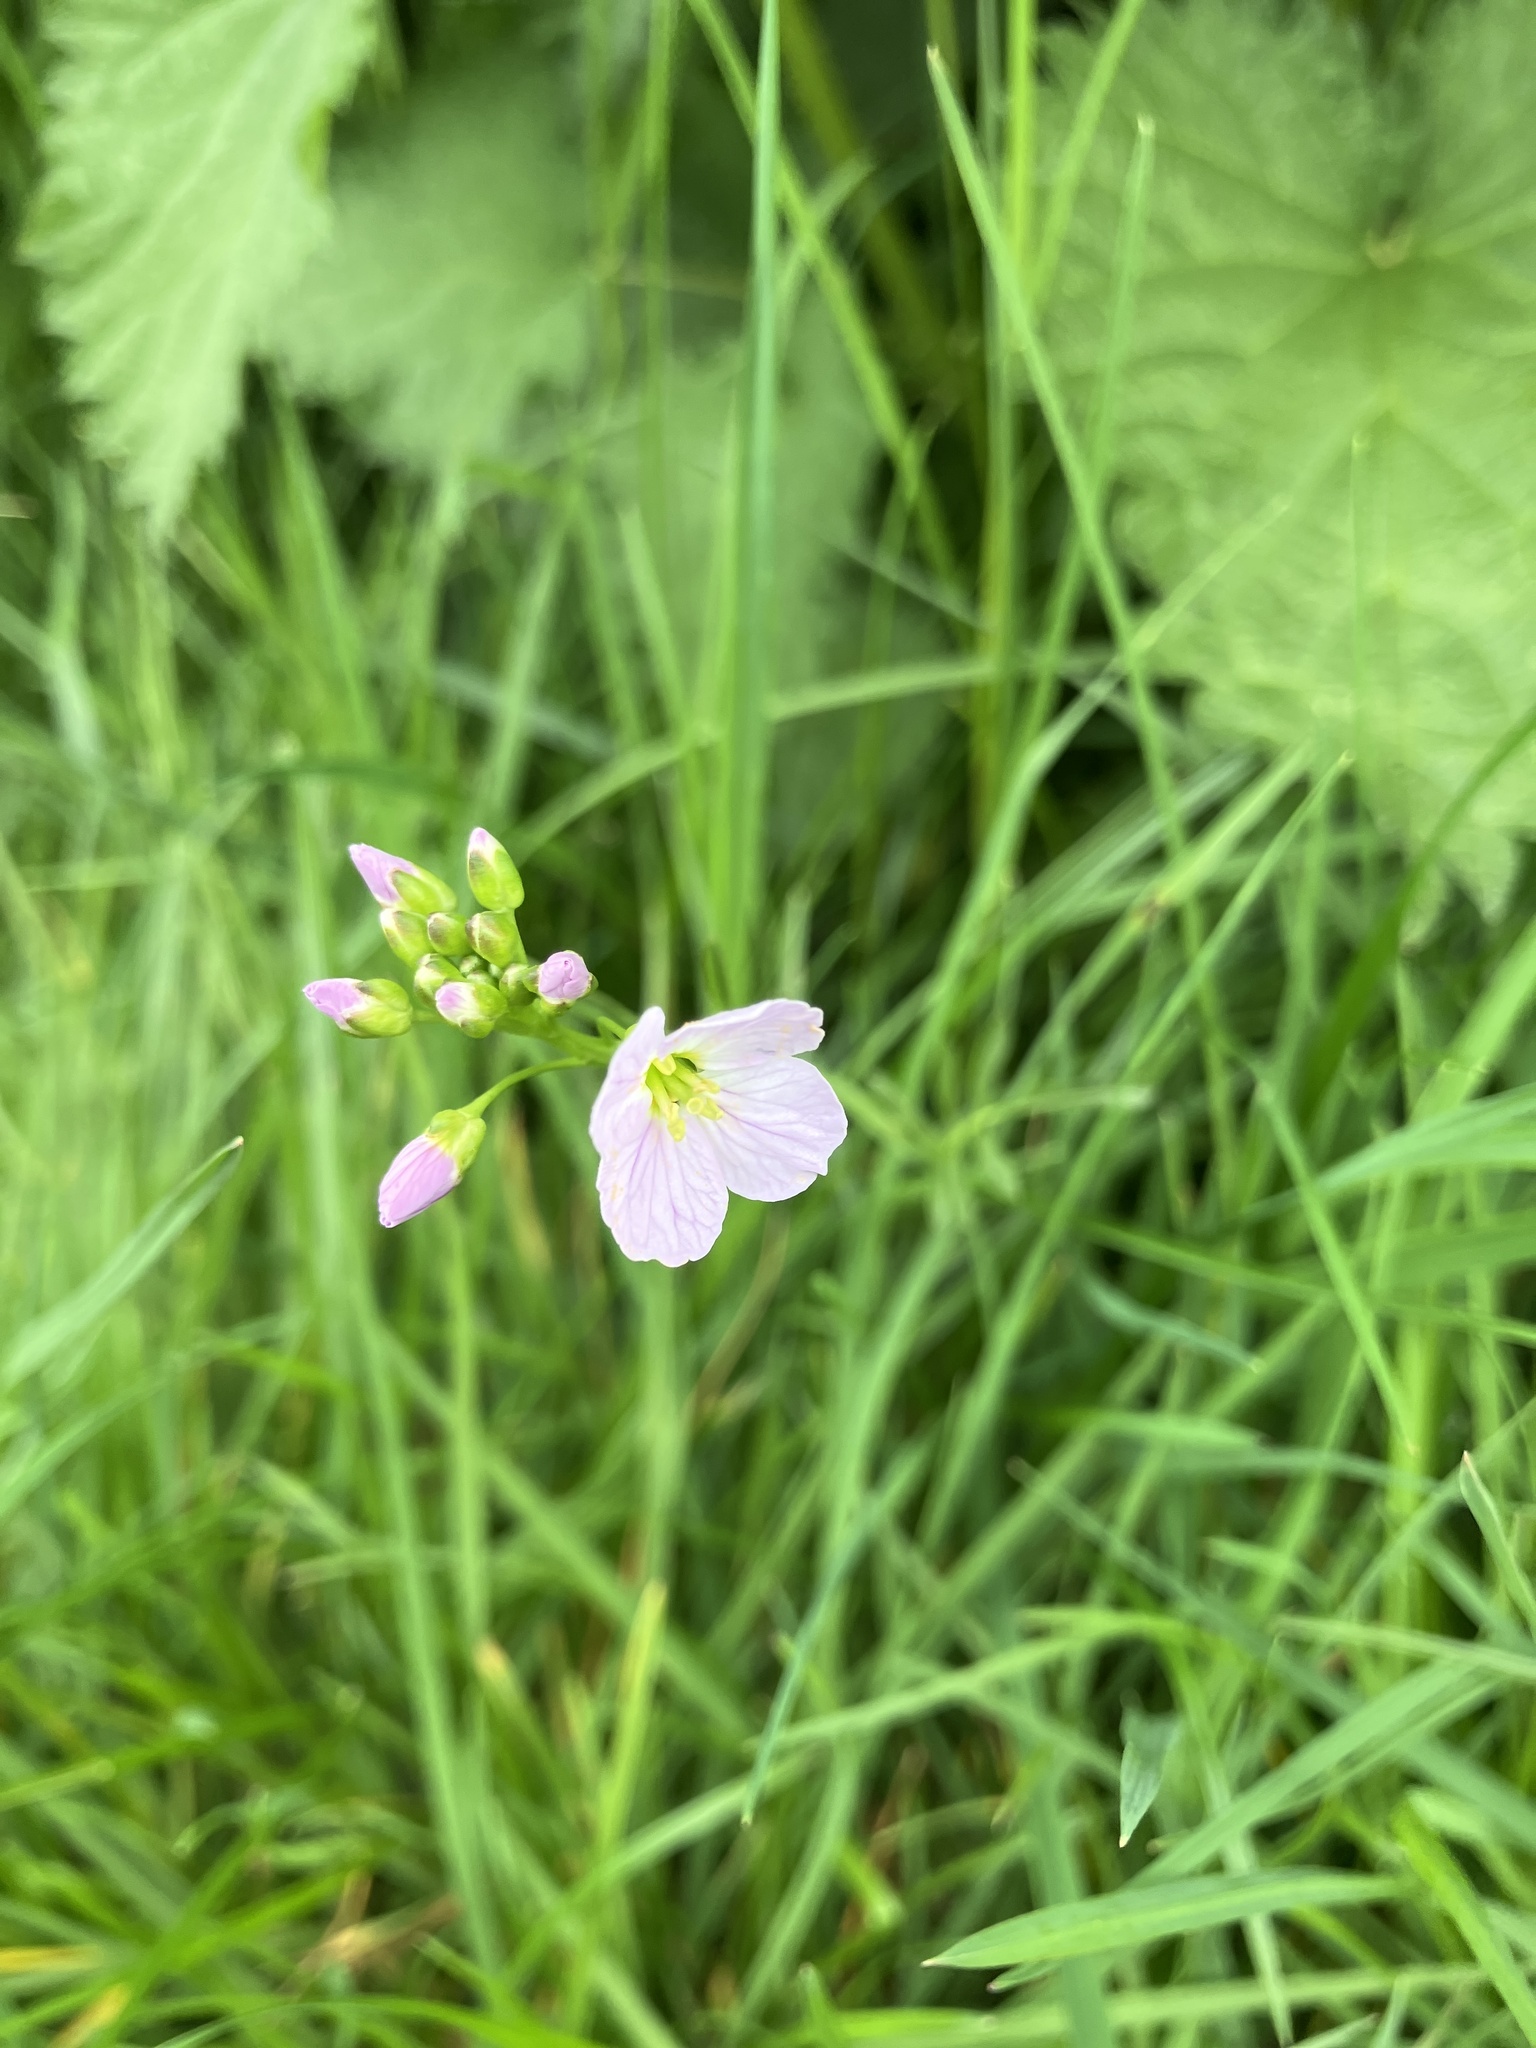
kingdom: Plantae
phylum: Tracheophyta
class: Magnoliopsida
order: Brassicales
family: Brassicaceae
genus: Cardamine
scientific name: Cardamine pratensis
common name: Cuckoo flower
